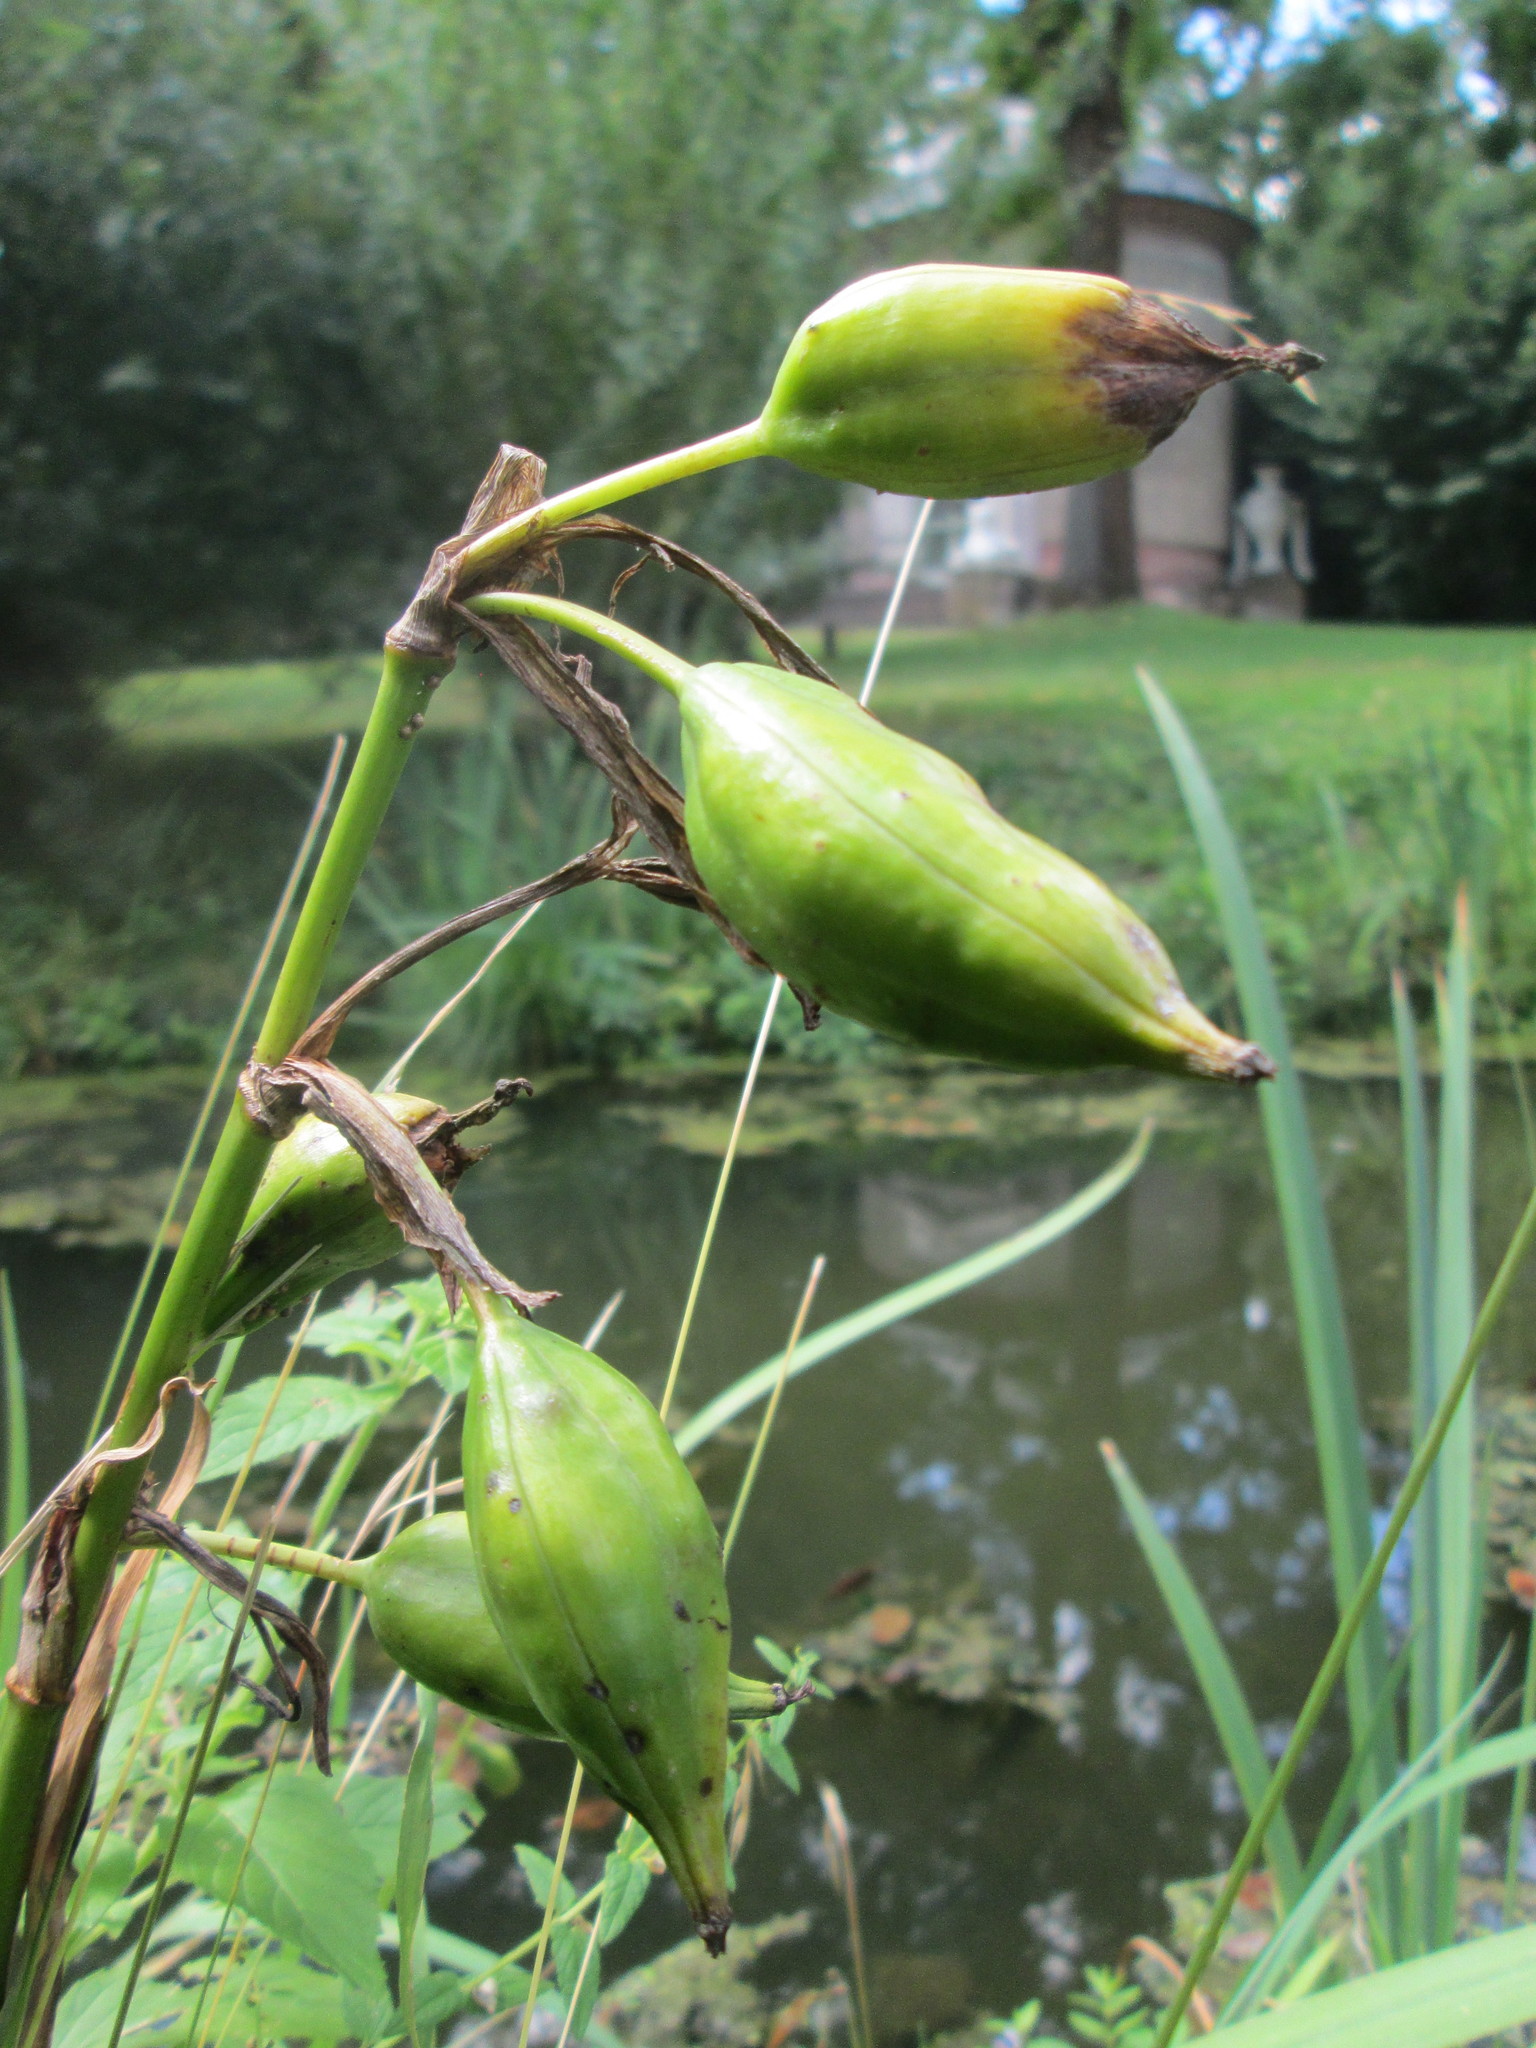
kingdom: Plantae
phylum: Tracheophyta
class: Liliopsida
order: Asparagales
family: Iridaceae
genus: Iris
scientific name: Iris pseudacorus
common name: Yellow flag
